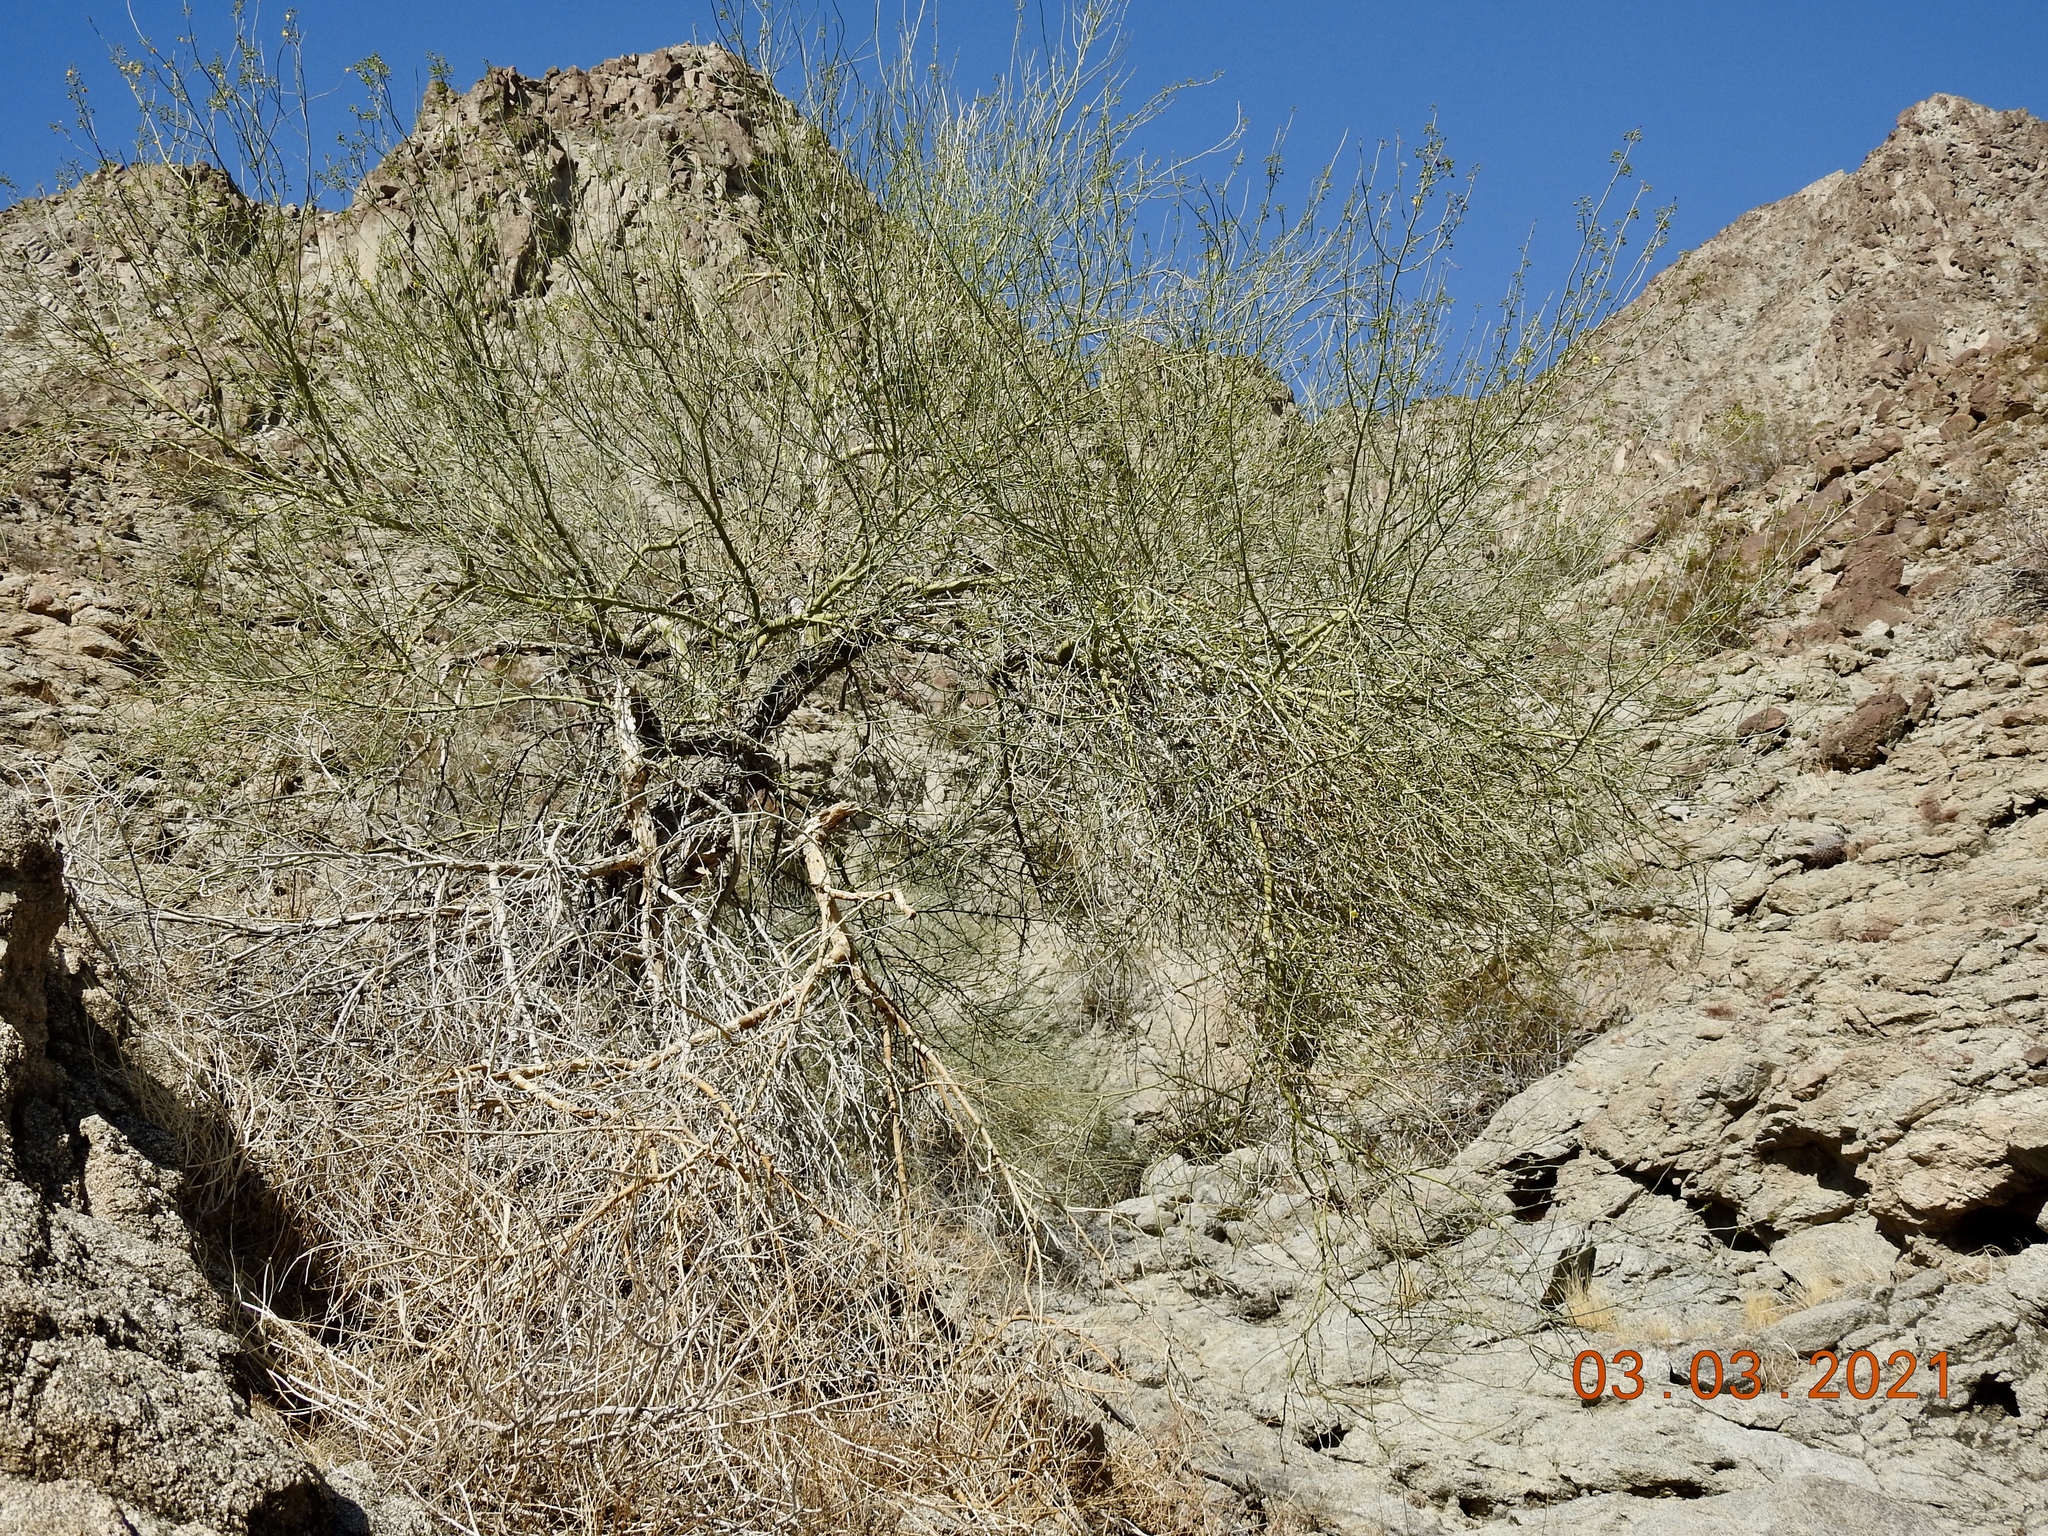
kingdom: Plantae
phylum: Tracheophyta
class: Magnoliopsida
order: Fabales
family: Fabaceae
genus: Parkinsonia
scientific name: Parkinsonia florida
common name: Blue paloverde
